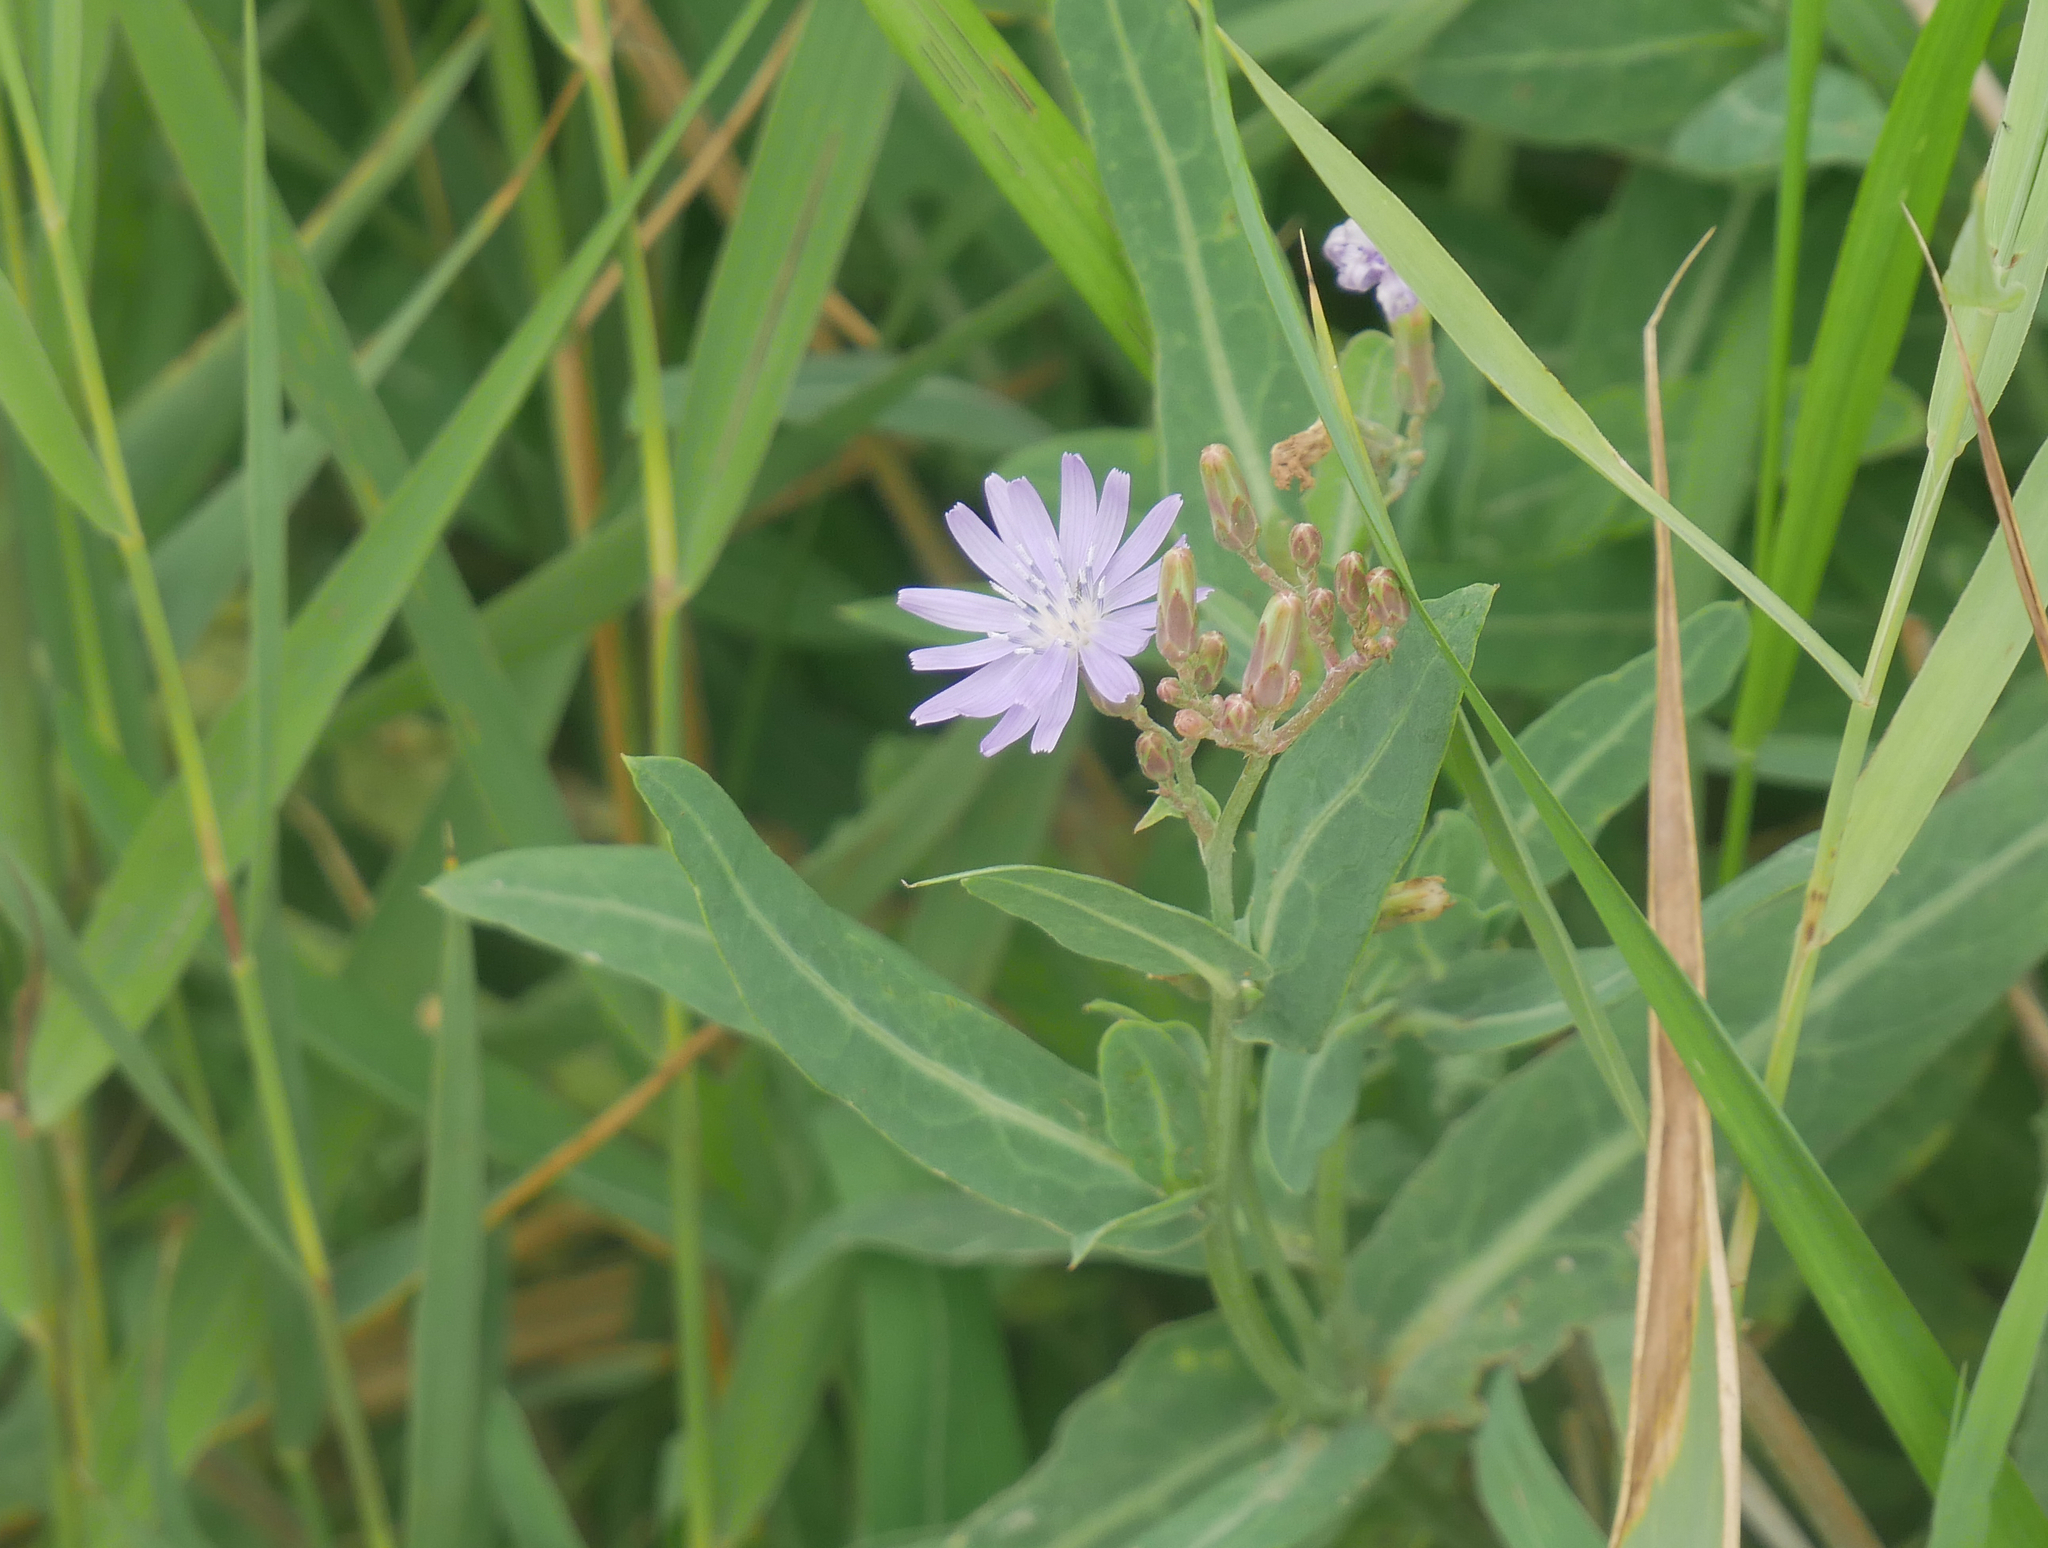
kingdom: Plantae
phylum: Tracheophyta
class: Magnoliopsida
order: Asterales
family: Asteraceae
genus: Lactuca
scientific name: Lactuca tatarica
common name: Blue lettuce
